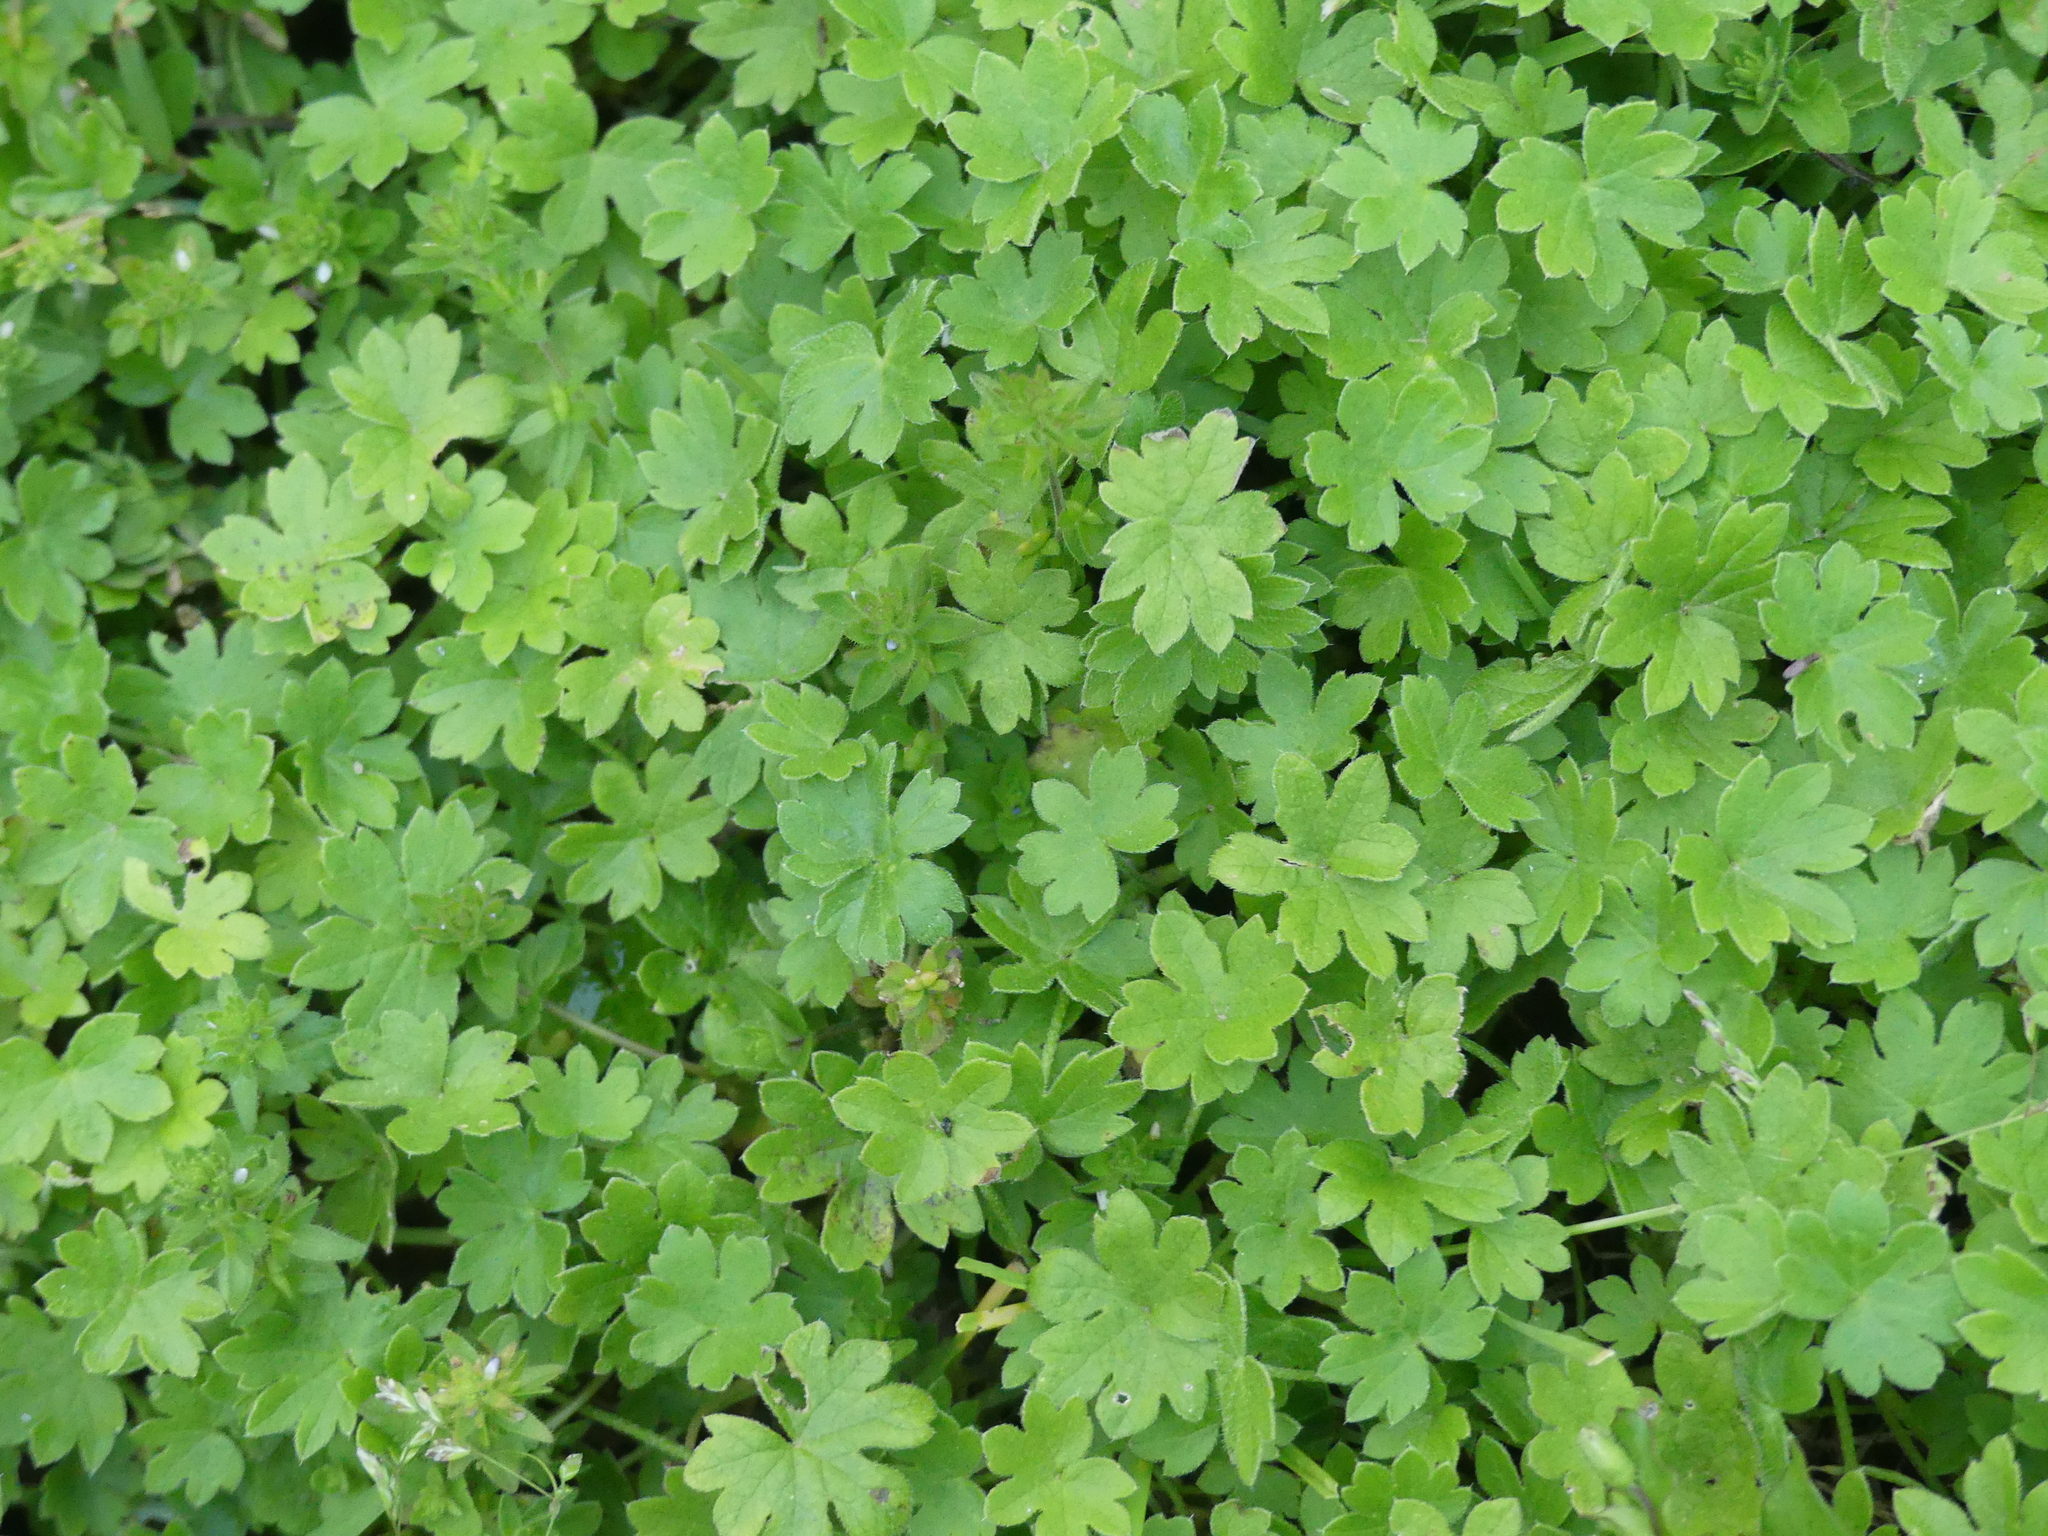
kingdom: Plantae
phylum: Tracheophyta
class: Magnoliopsida
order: Apiales
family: Apiaceae
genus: Bowlesia
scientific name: Bowlesia incana
